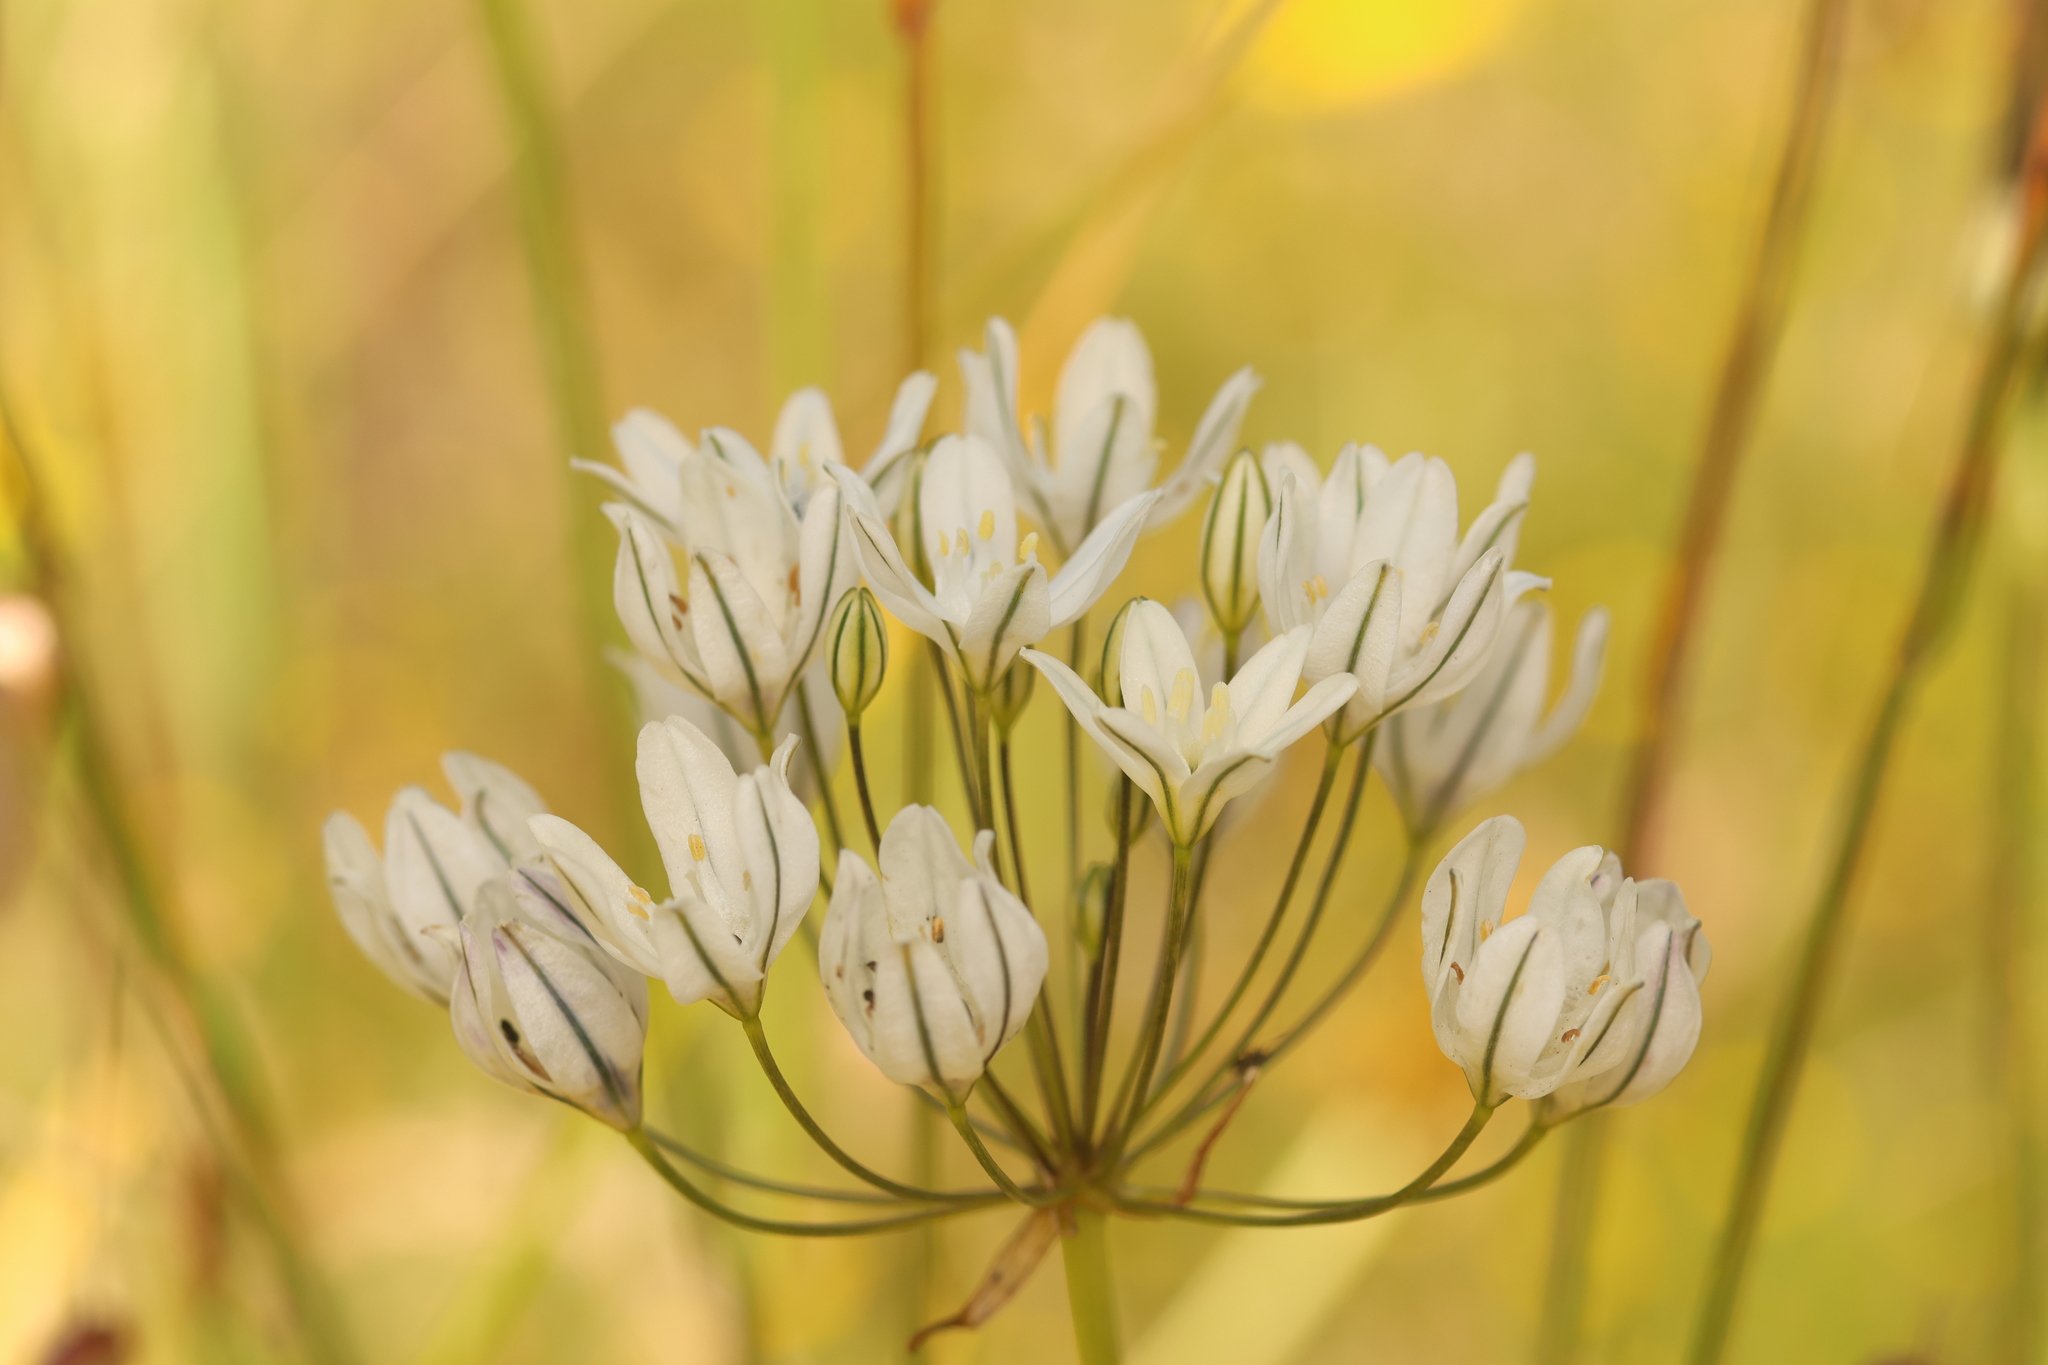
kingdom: Plantae
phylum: Tracheophyta
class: Liliopsida
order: Asparagales
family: Asparagaceae
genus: Triteleia
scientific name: Triteleia hyacinthina
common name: White brodiaea
